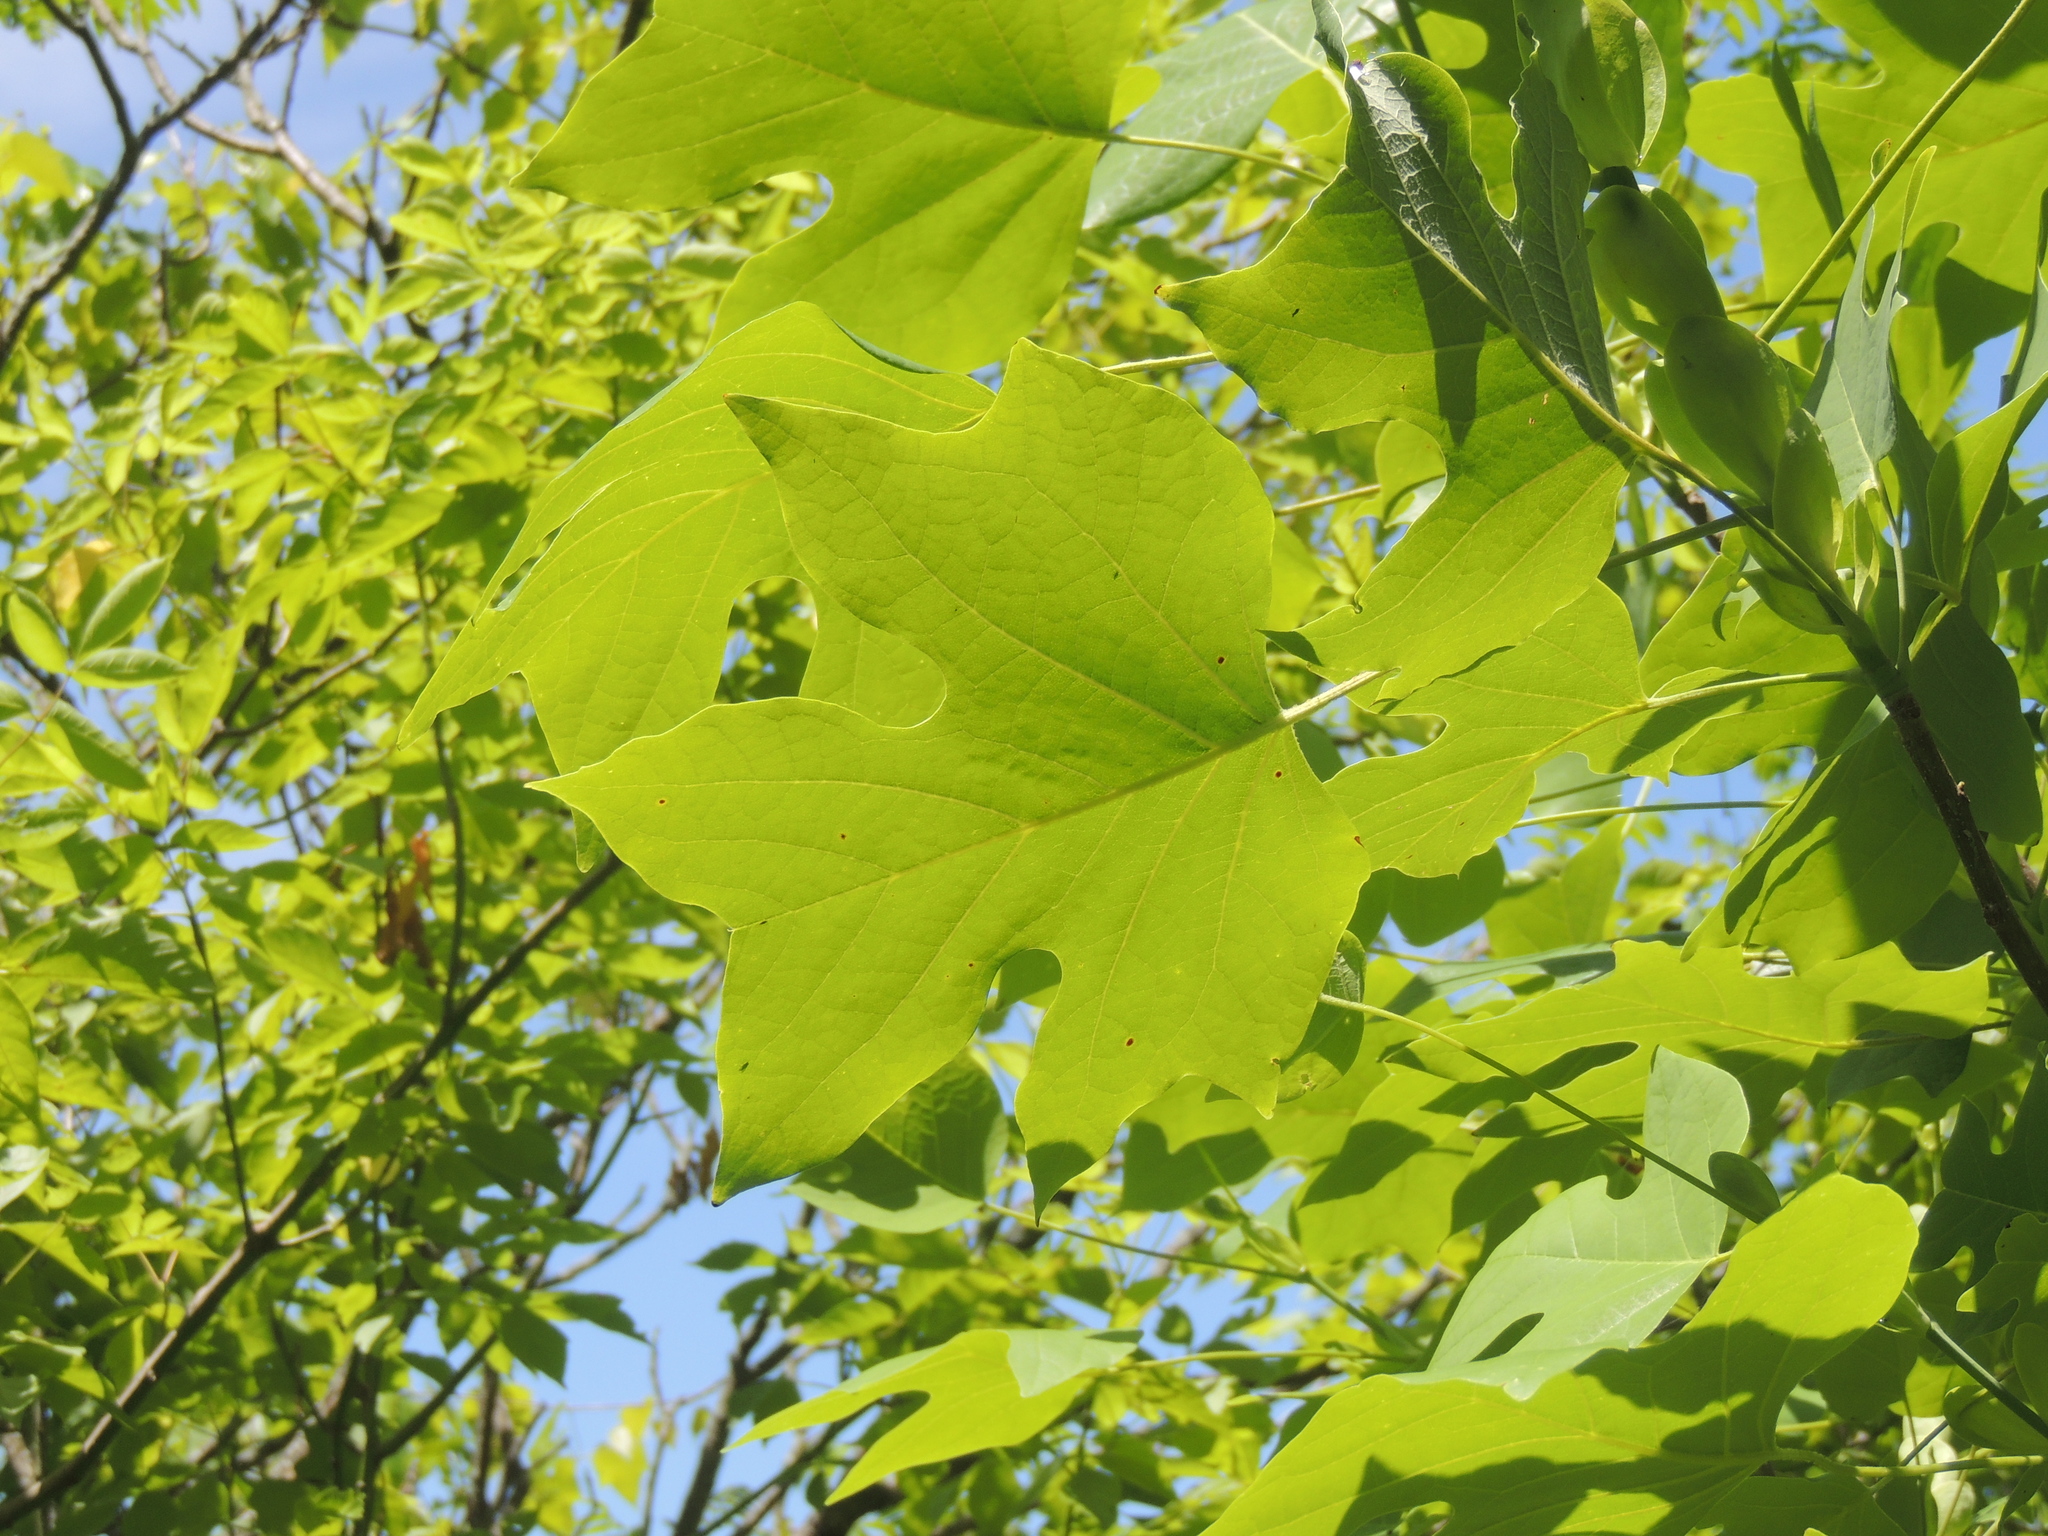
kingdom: Plantae
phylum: Tracheophyta
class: Magnoliopsida
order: Magnoliales
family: Magnoliaceae
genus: Liriodendron
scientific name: Liriodendron tulipifera
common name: Tulip tree
